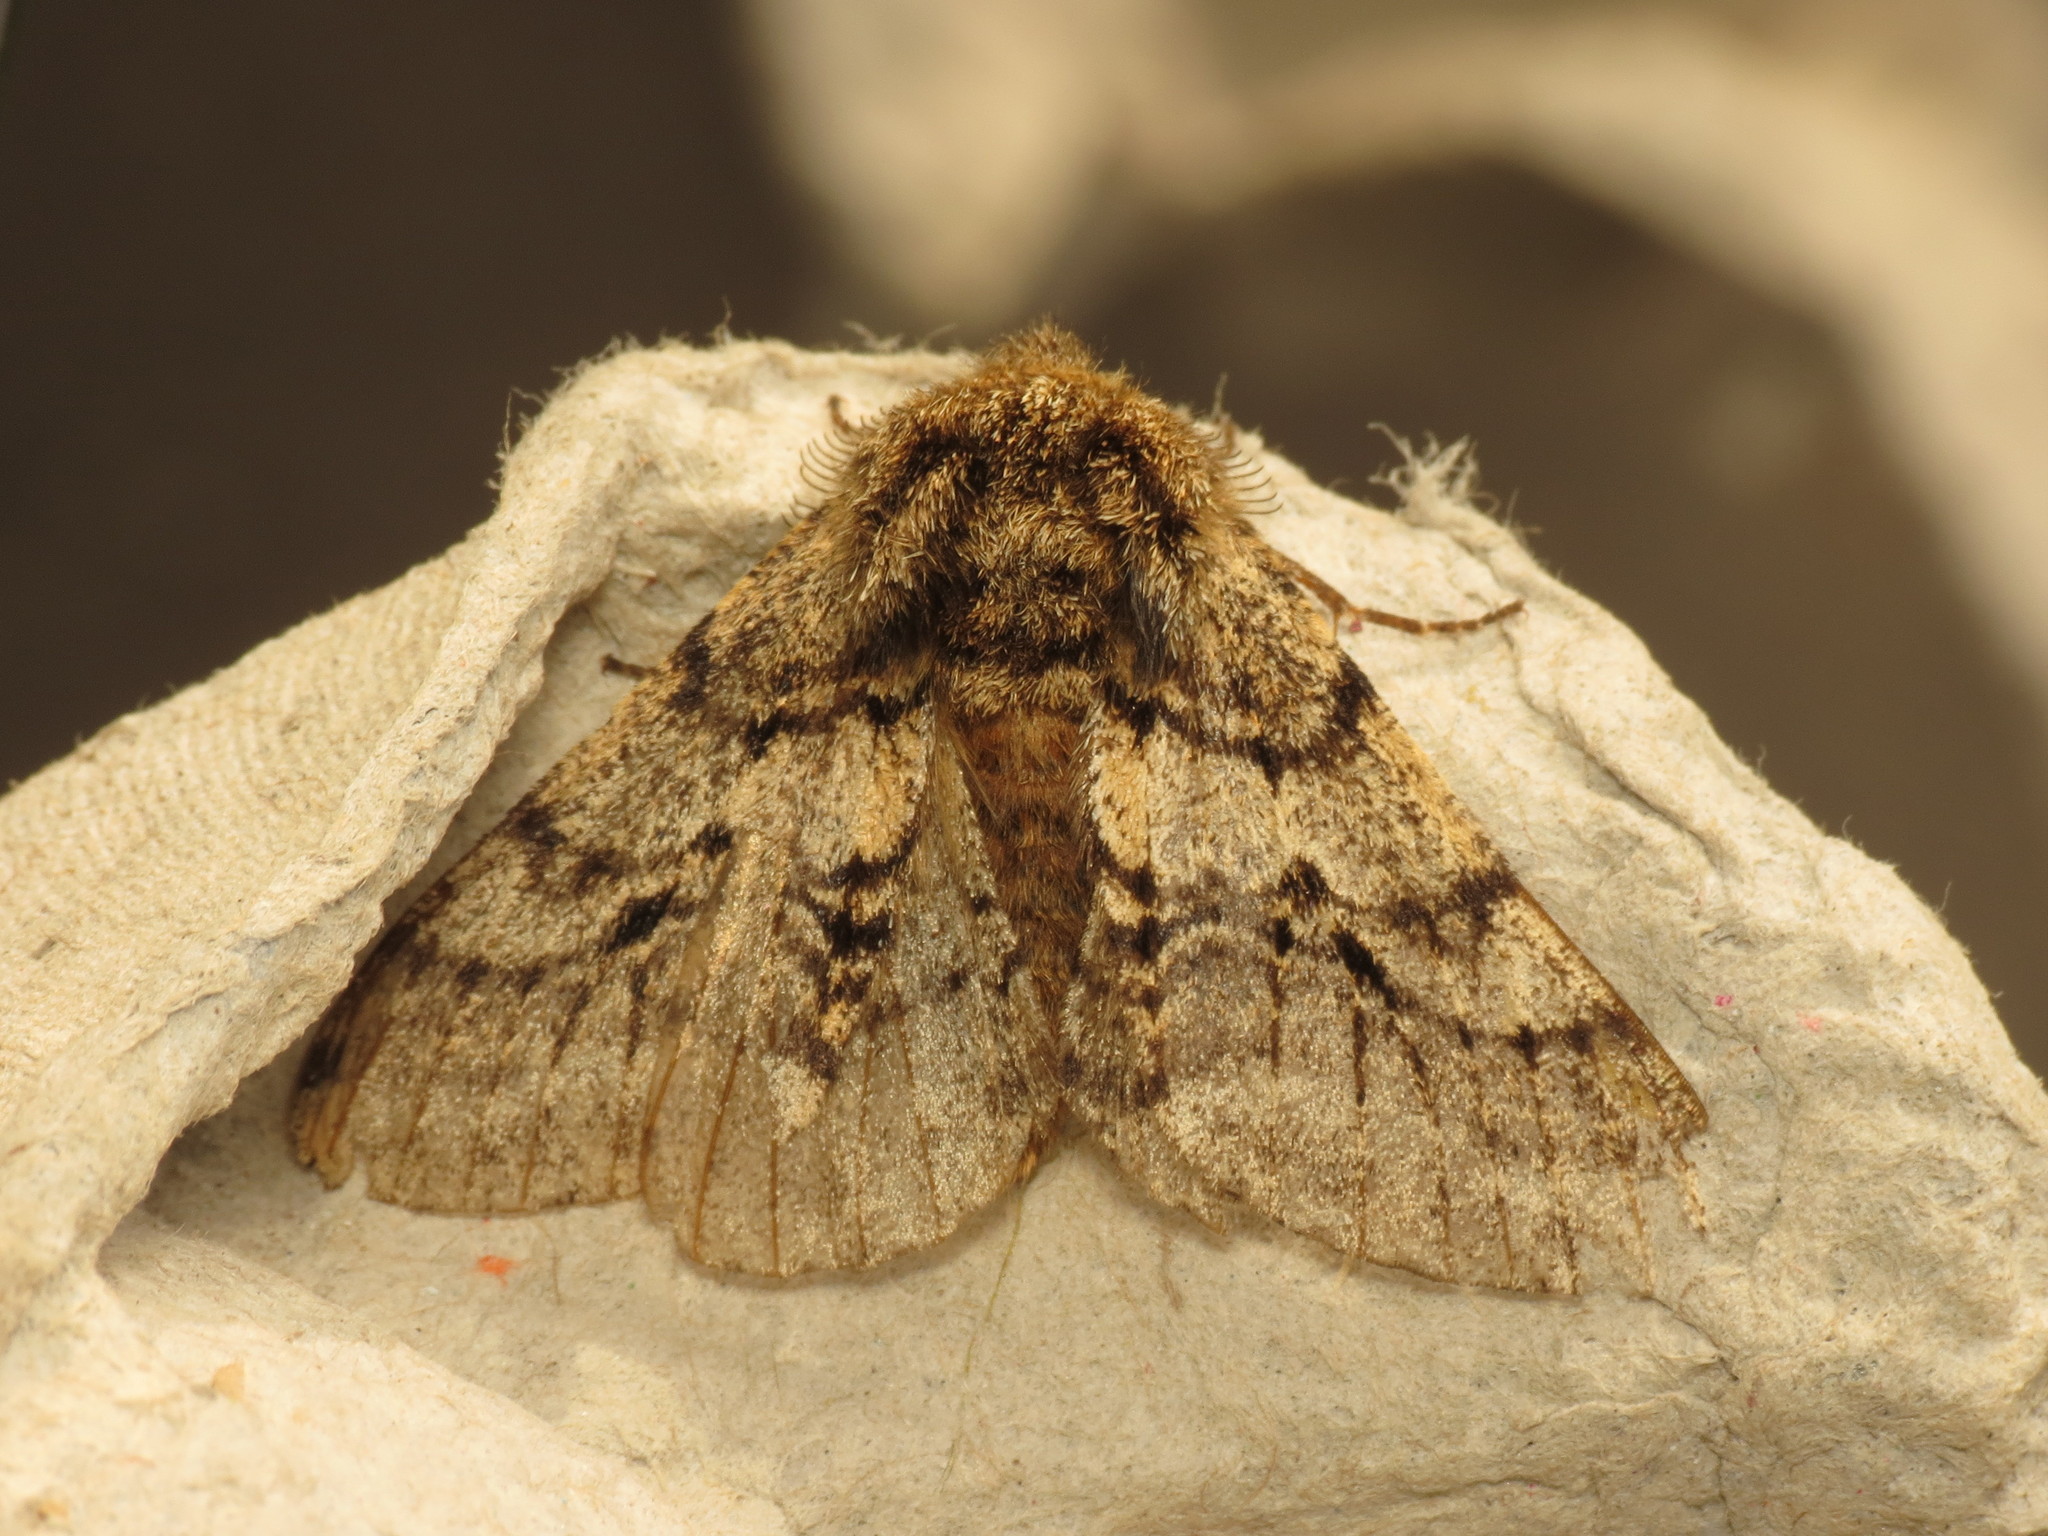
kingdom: Animalia
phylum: Arthropoda
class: Insecta
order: Lepidoptera
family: Geometridae
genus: Lycia
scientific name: Lycia hirtaria
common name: Brindled beauty
